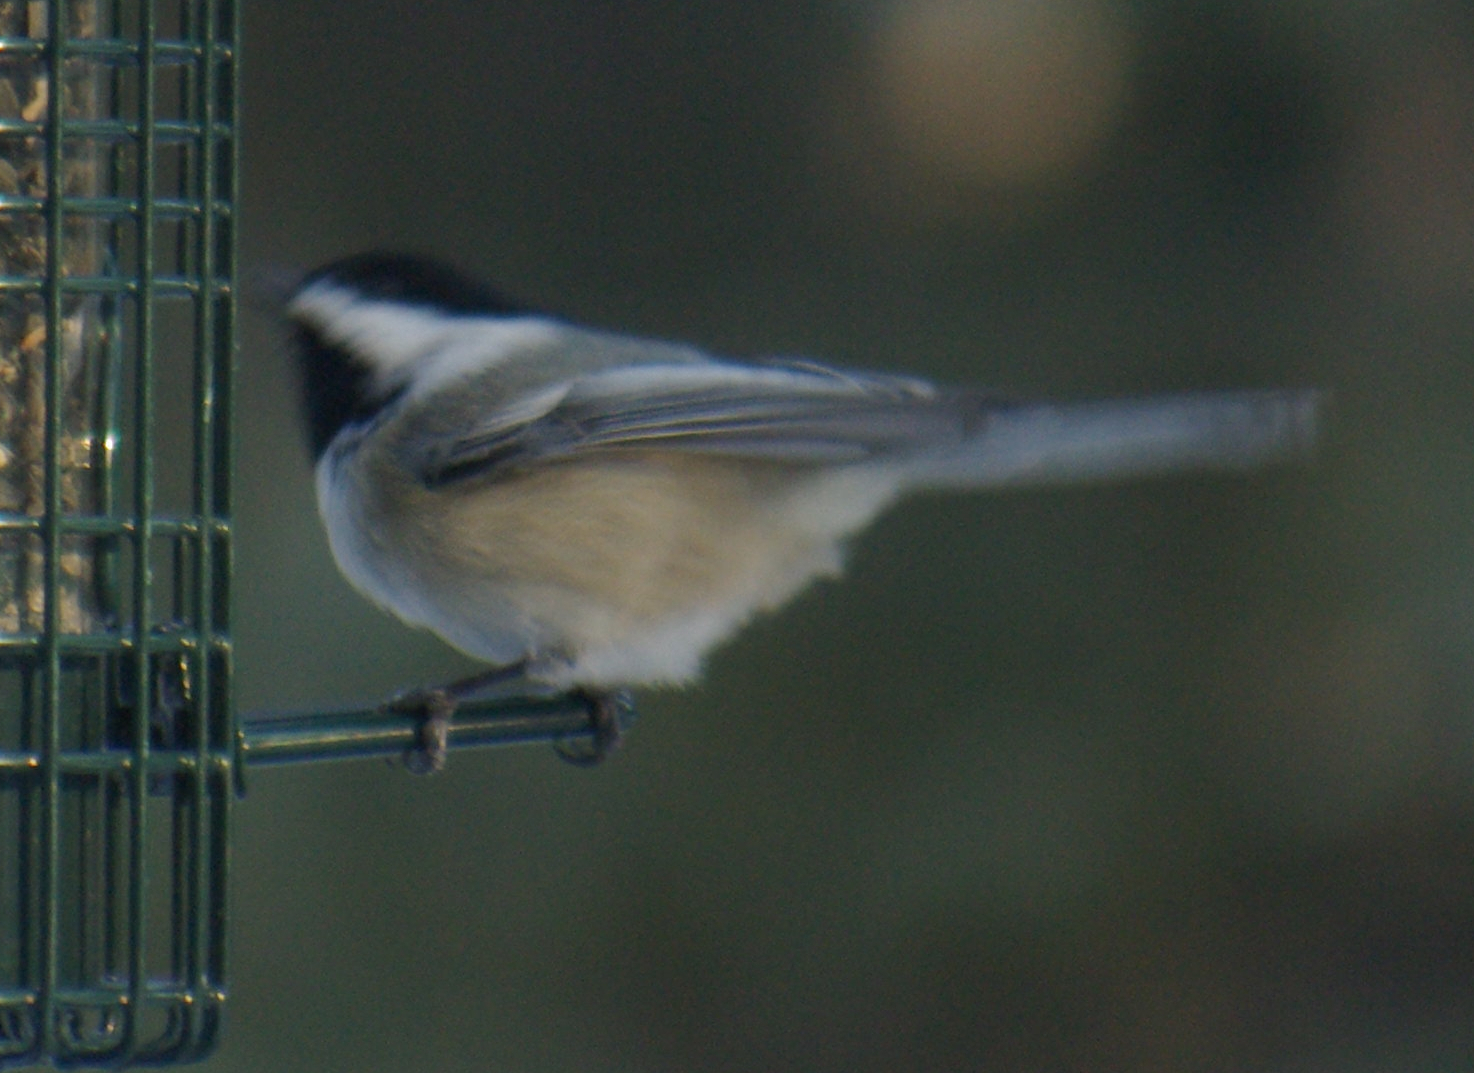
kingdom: Animalia
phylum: Chordata
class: Aves
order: Passeriformes
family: Paridae
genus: Poecile
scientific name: Poecile atricapillus
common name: Black-capped chickadee
